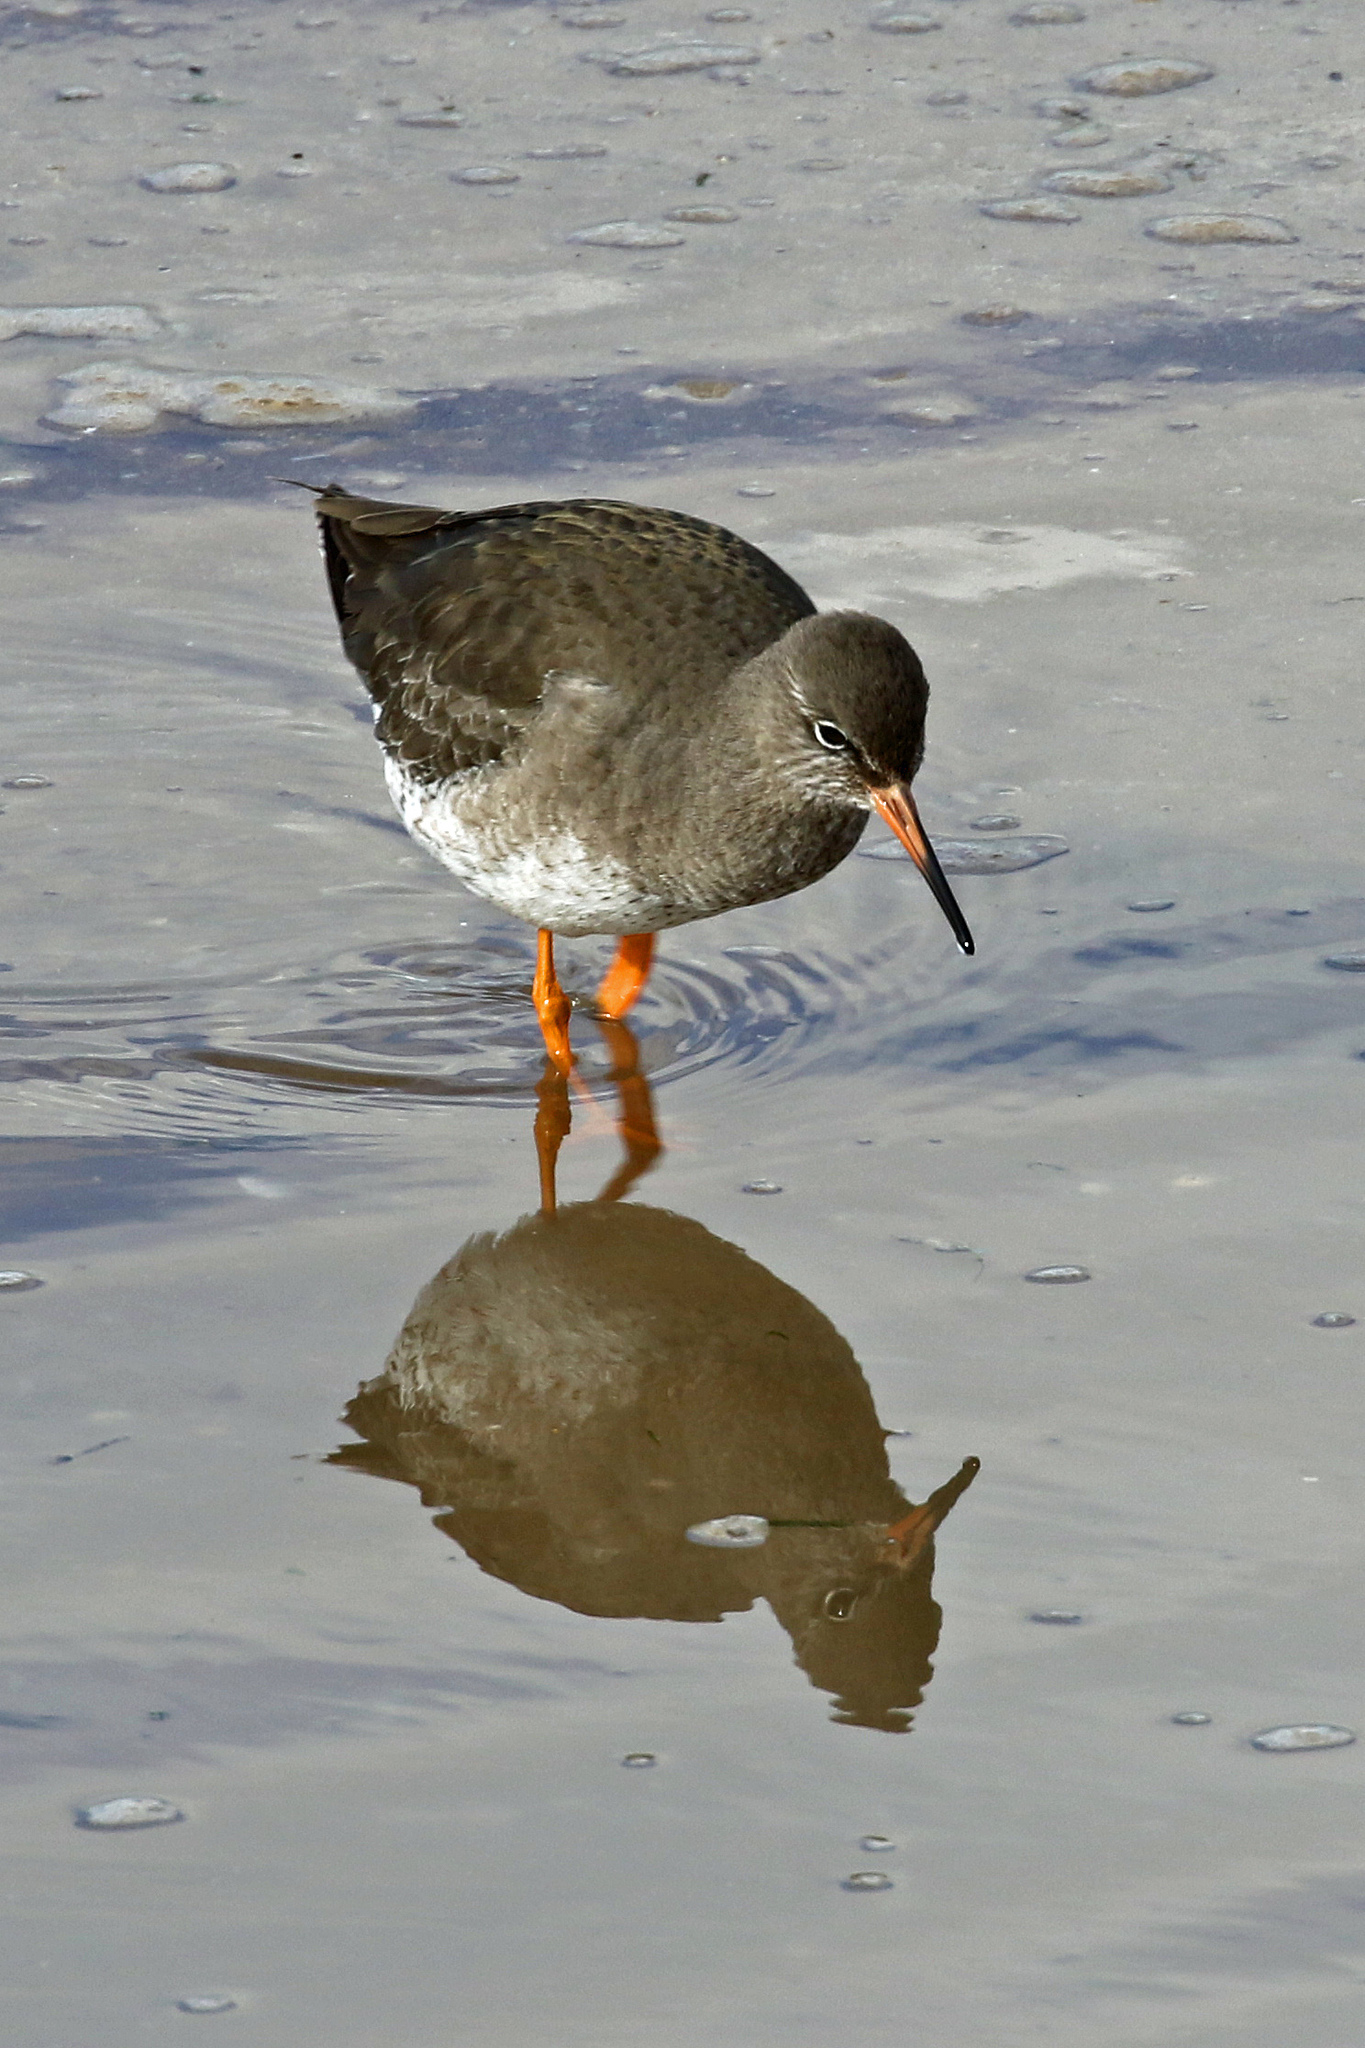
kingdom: Animalia
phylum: Chordata
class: Aves
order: Charadriiformes
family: Scolopacidae
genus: Tringa
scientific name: Tringa totanus
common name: Common redshank
